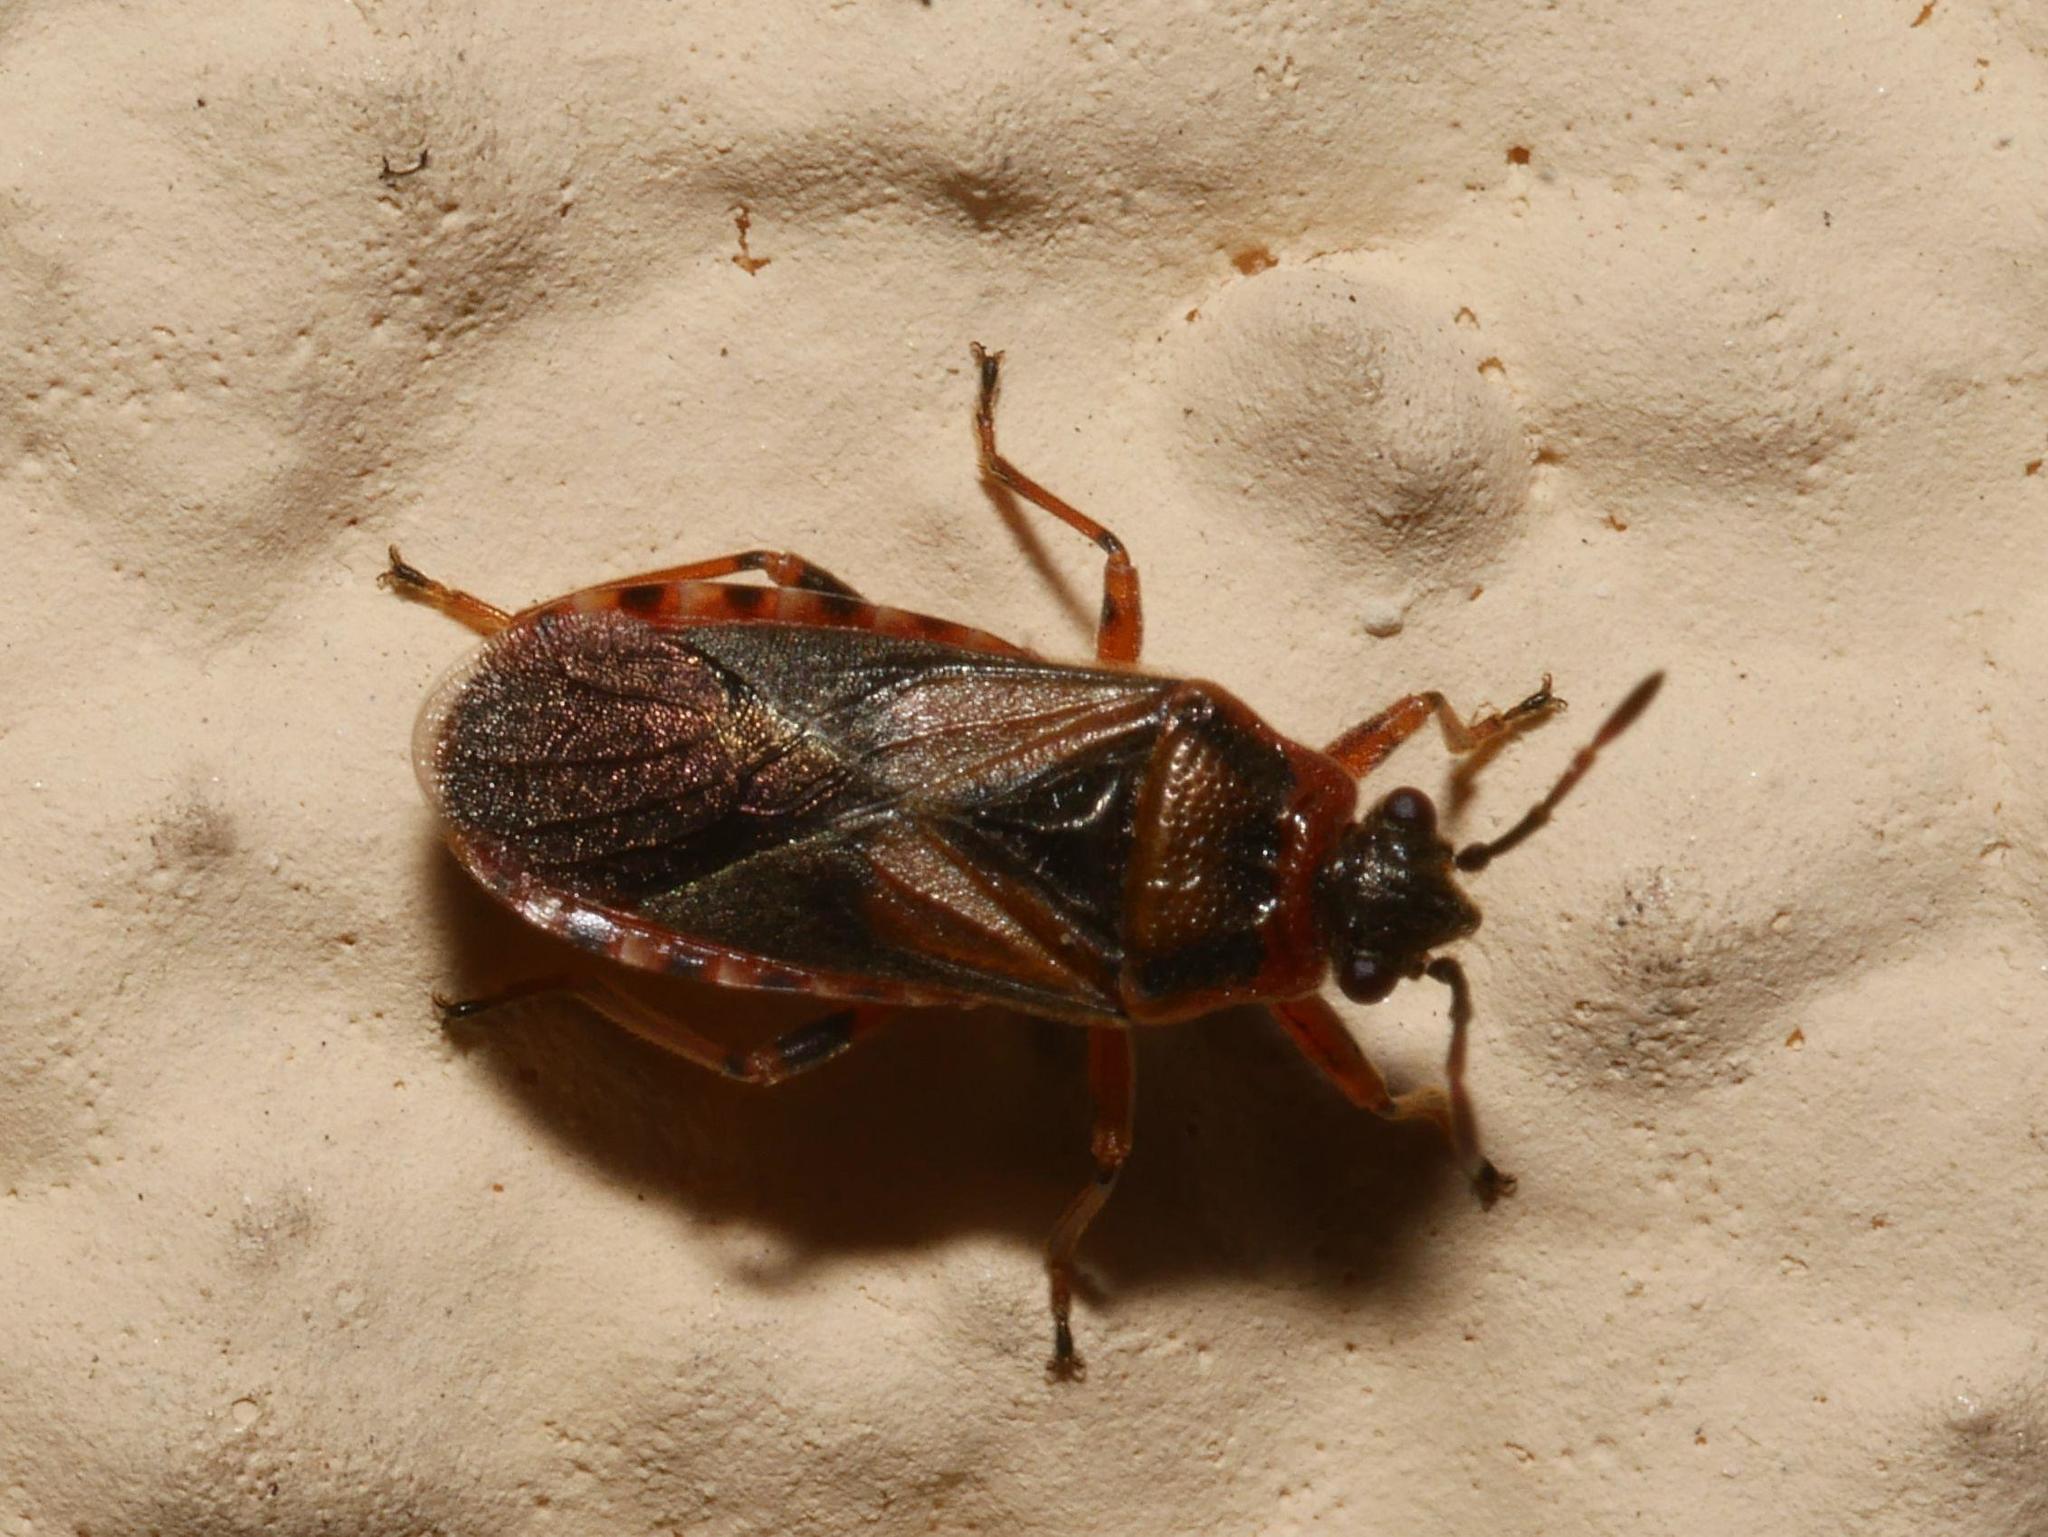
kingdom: Animalia
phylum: Arthropoda
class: Insecta
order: Hemiptera
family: Lygaeidae
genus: Arocatus
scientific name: Arocatus melanocephalus
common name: Lygaeid bug
